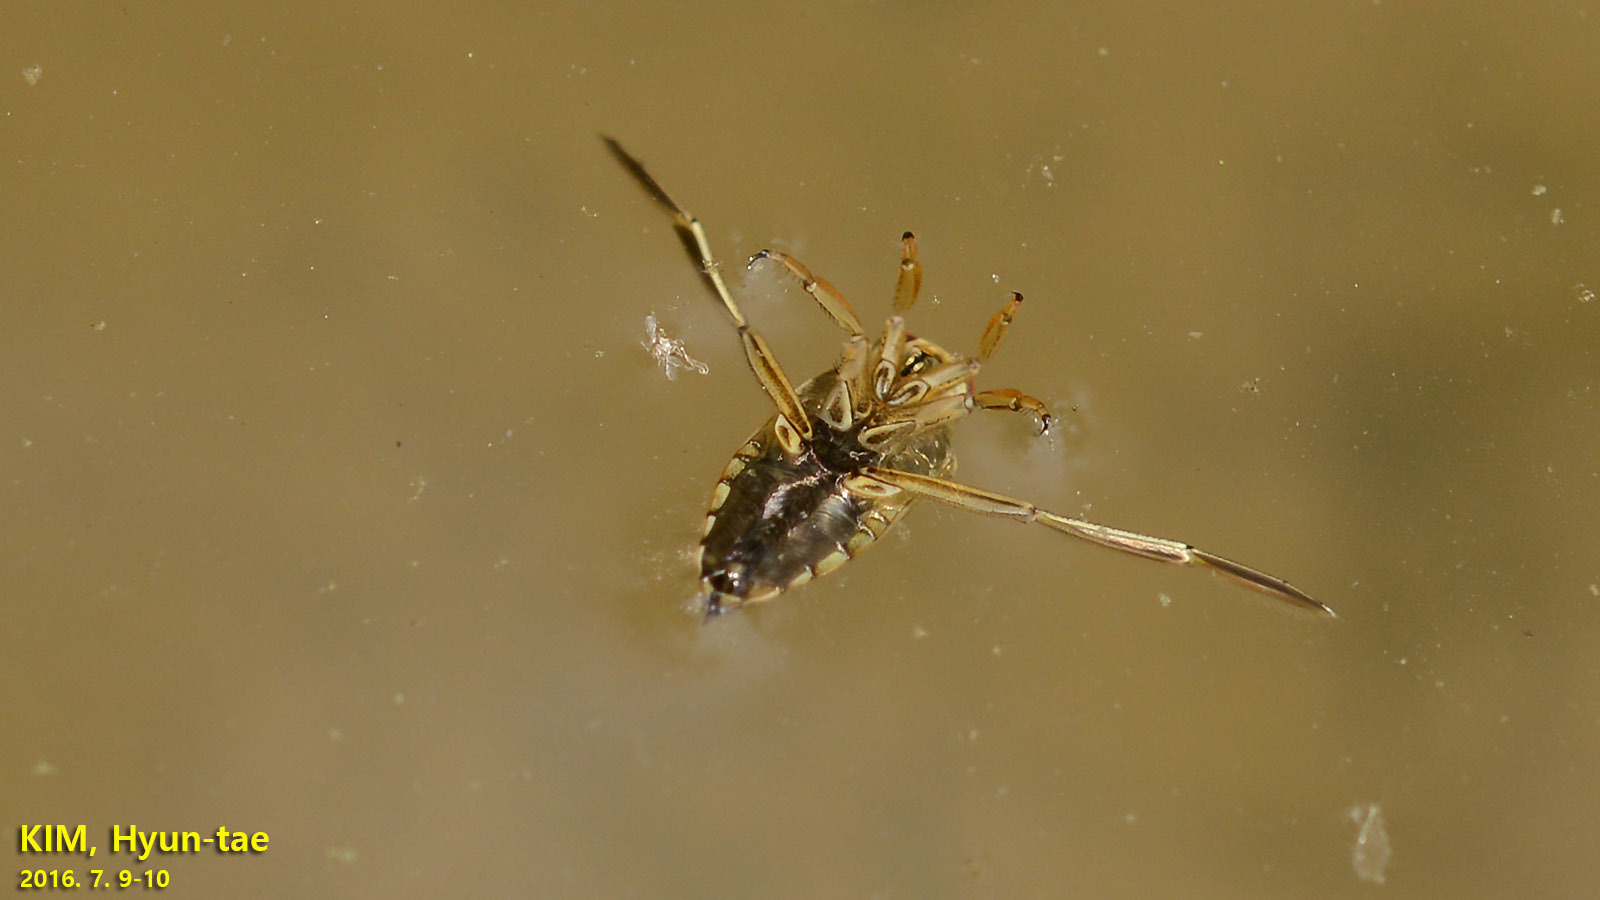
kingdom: Animalia
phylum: Arthropoda
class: Insecta
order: Hemiptera
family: Notonectidae
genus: Notonecta
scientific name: Notonecta
